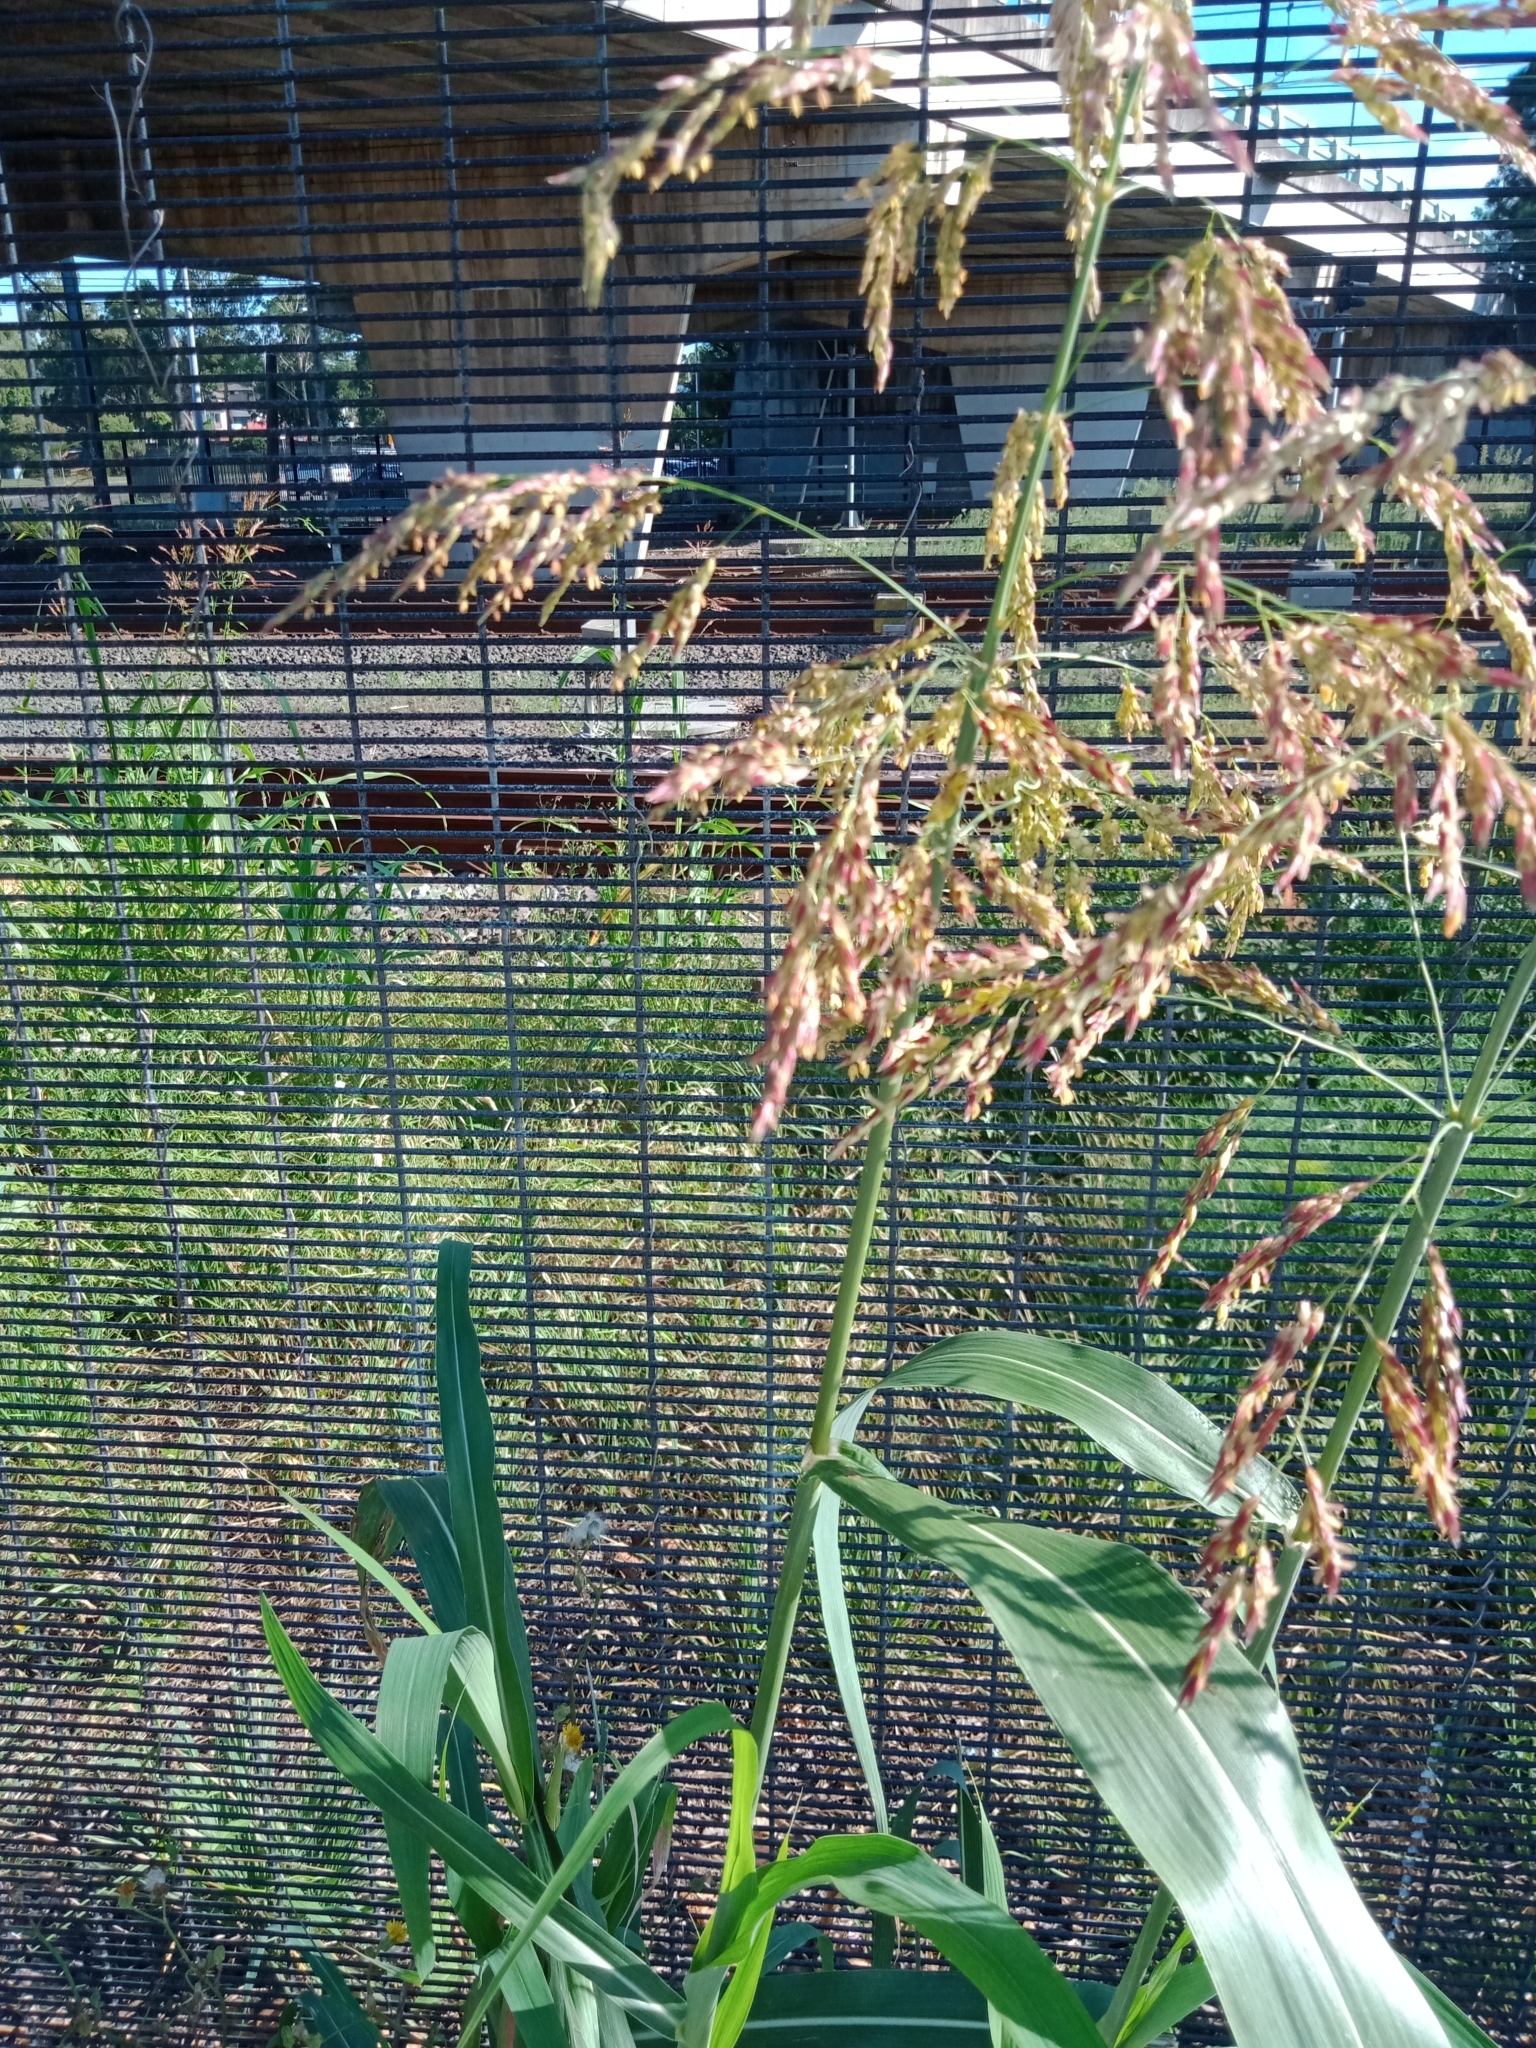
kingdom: Plantae
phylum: Tracheophyta
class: Liliopsida
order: Poales
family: Poaceae
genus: Sorghum
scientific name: Sorghum halepense
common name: Johnson-grass
